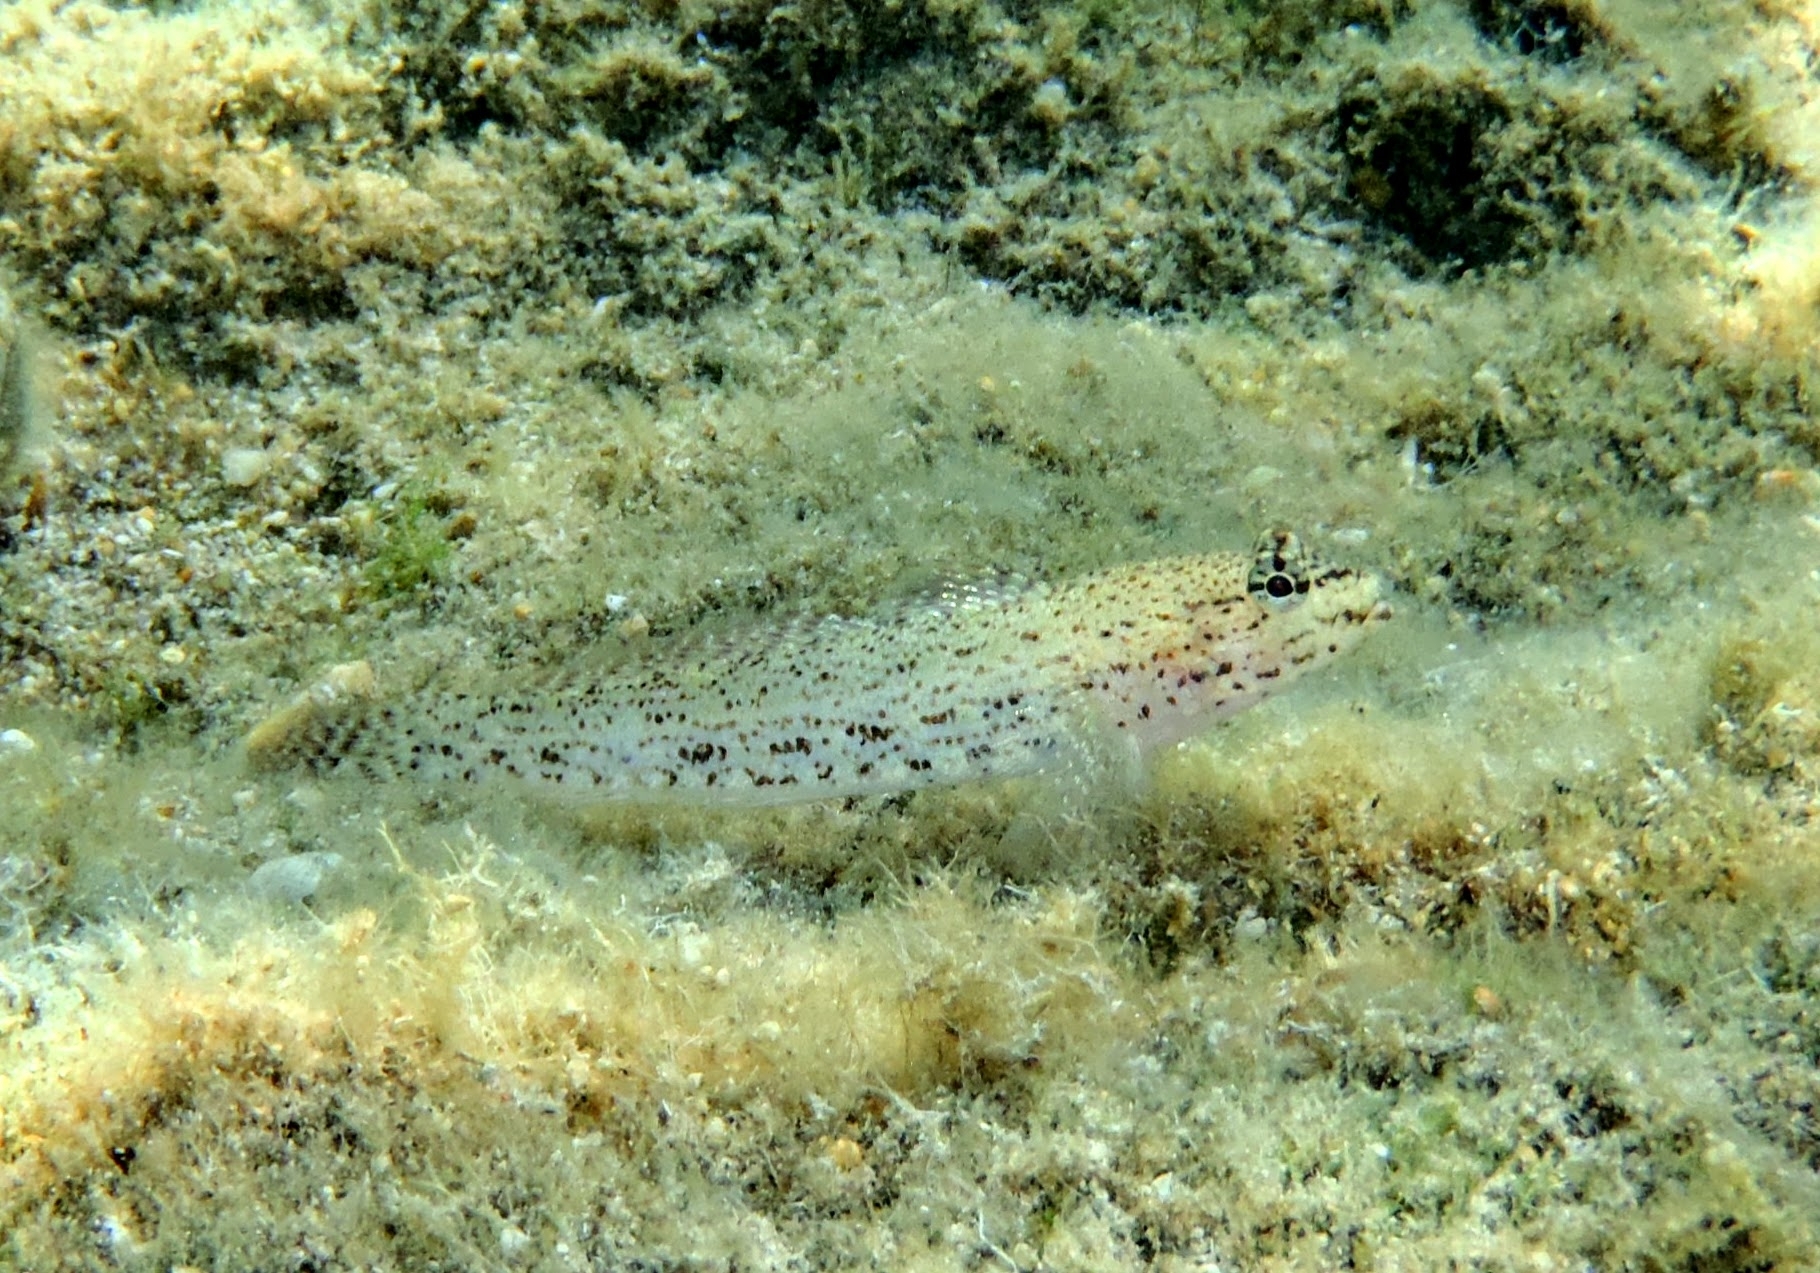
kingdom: Animalia
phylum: Chordata
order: Perciformes
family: Gobiidae
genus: Gobius
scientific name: Gobius incognitus
